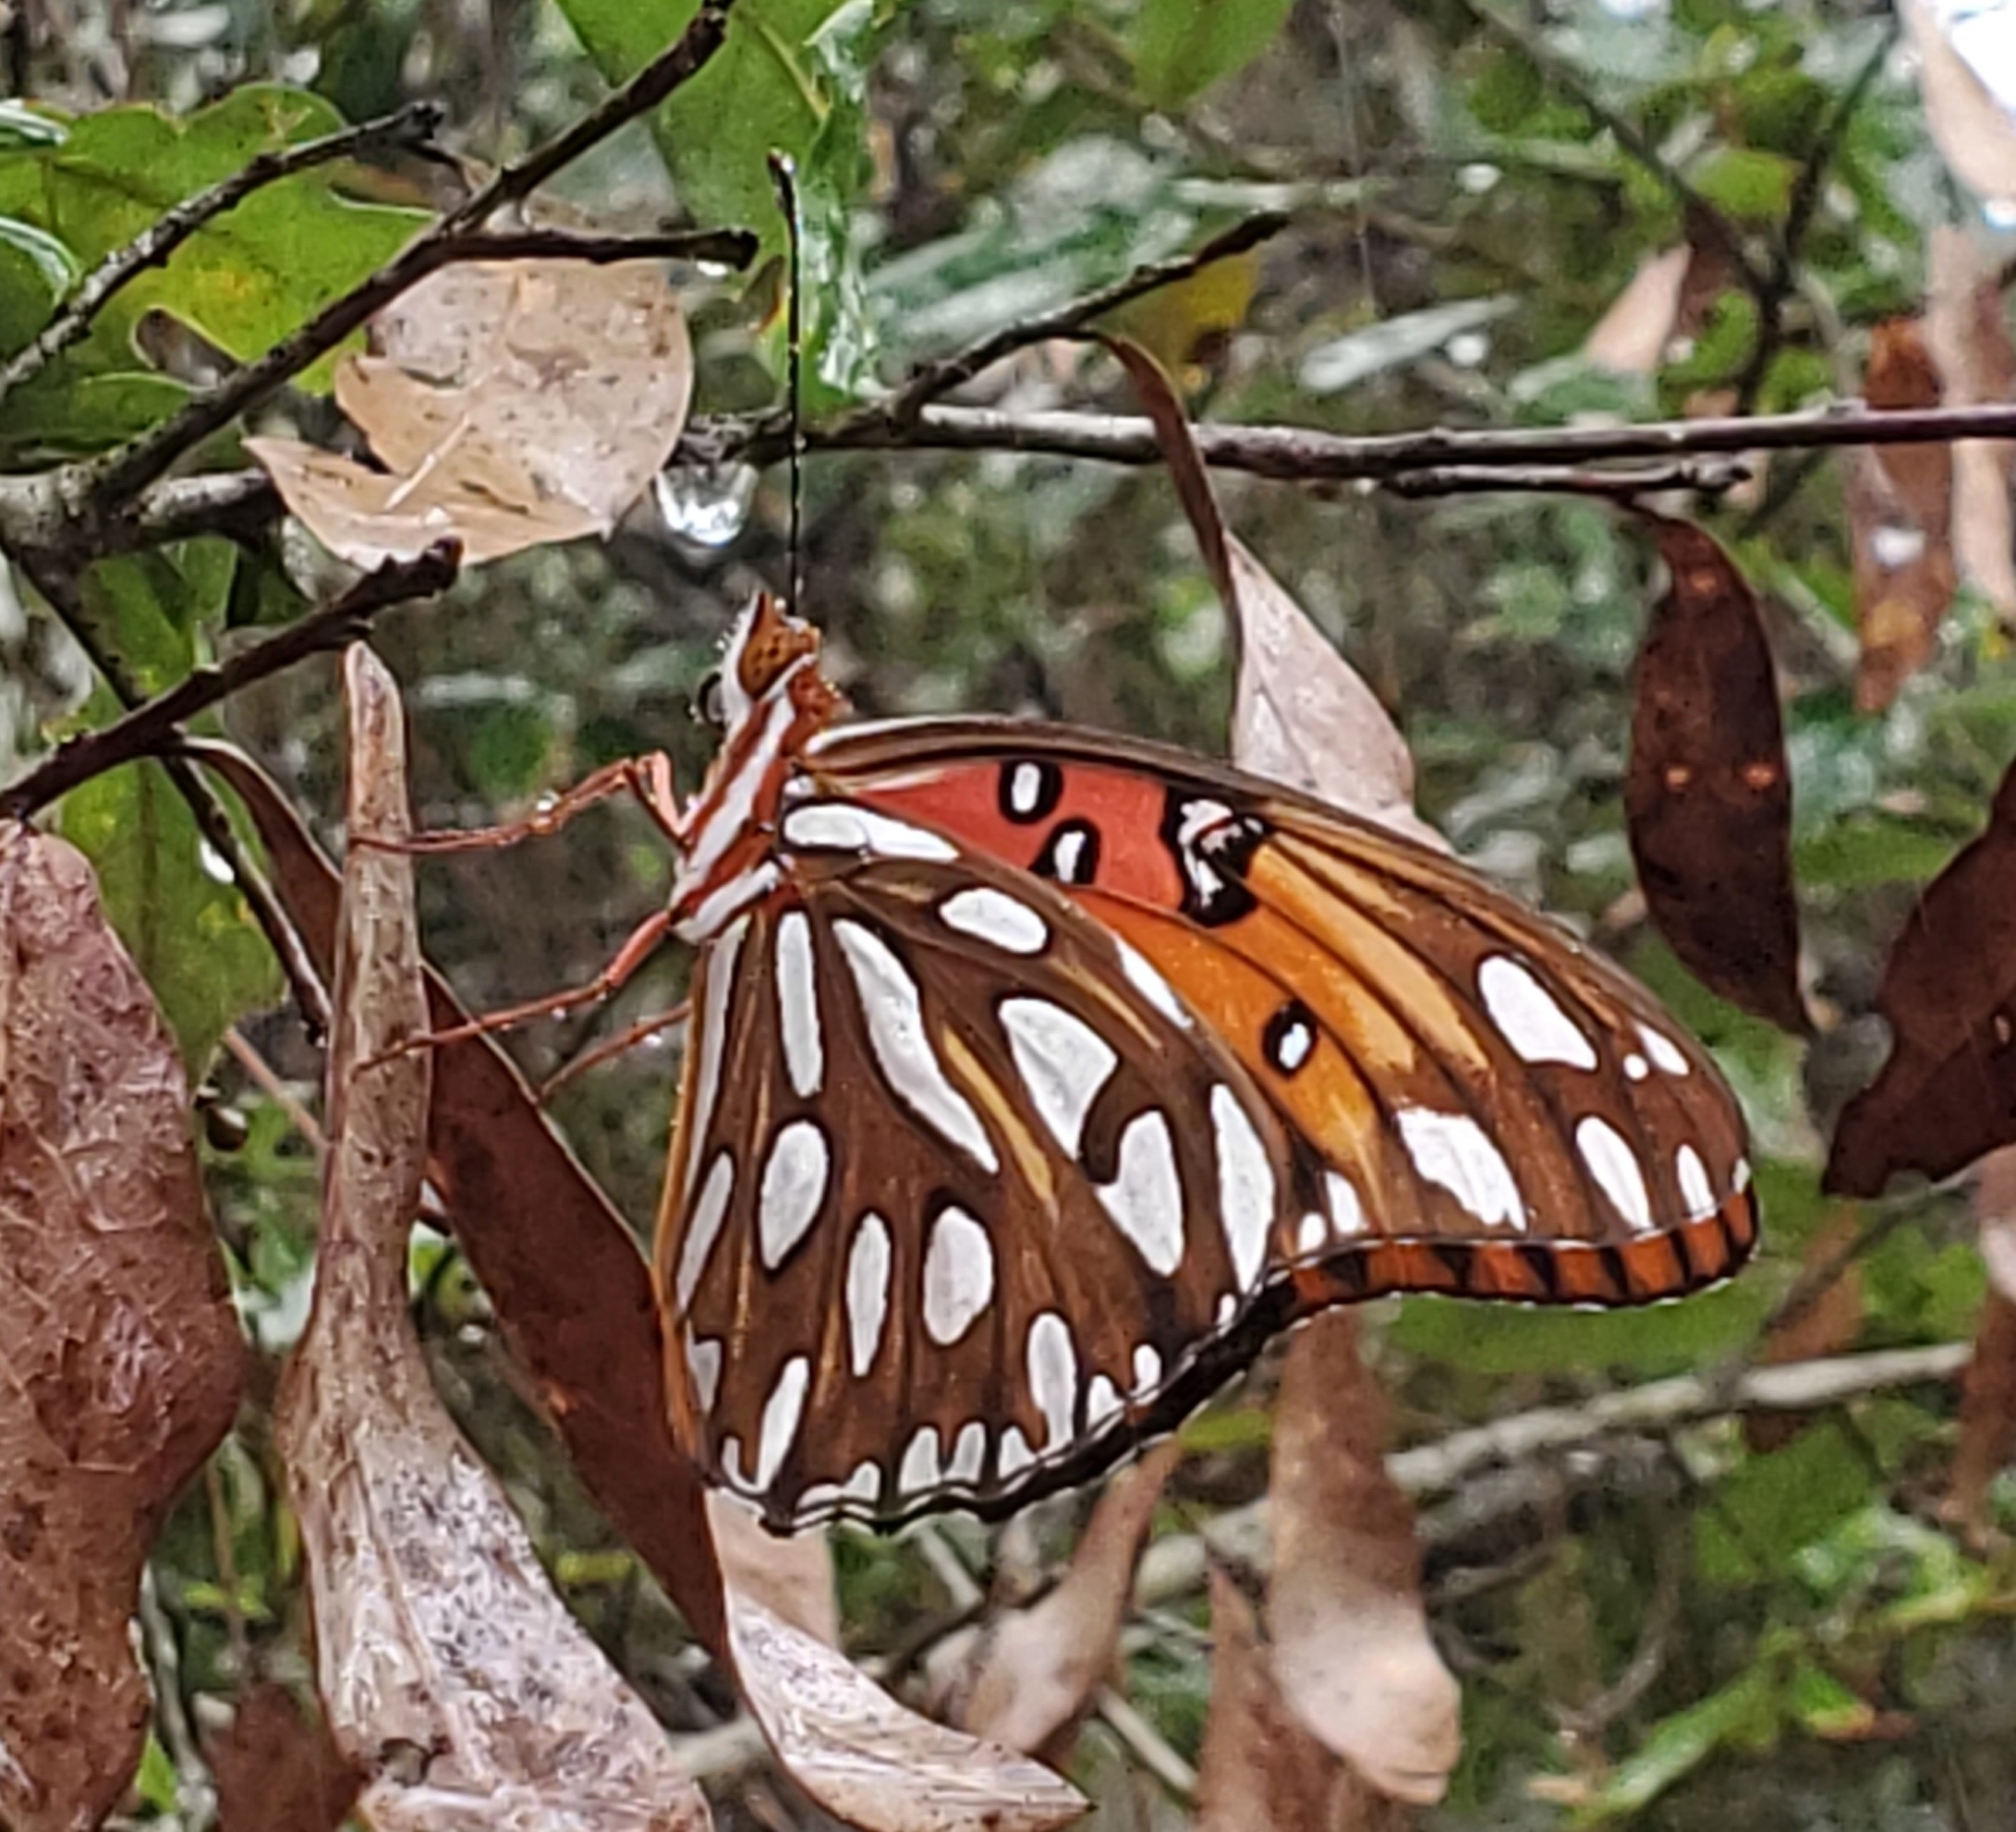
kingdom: Animalia
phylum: Arthropoda
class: Insecta
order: Lepidoptera
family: Nymphalidae
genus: Dione
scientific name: Dione vanillae
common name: Gulf fritillary
